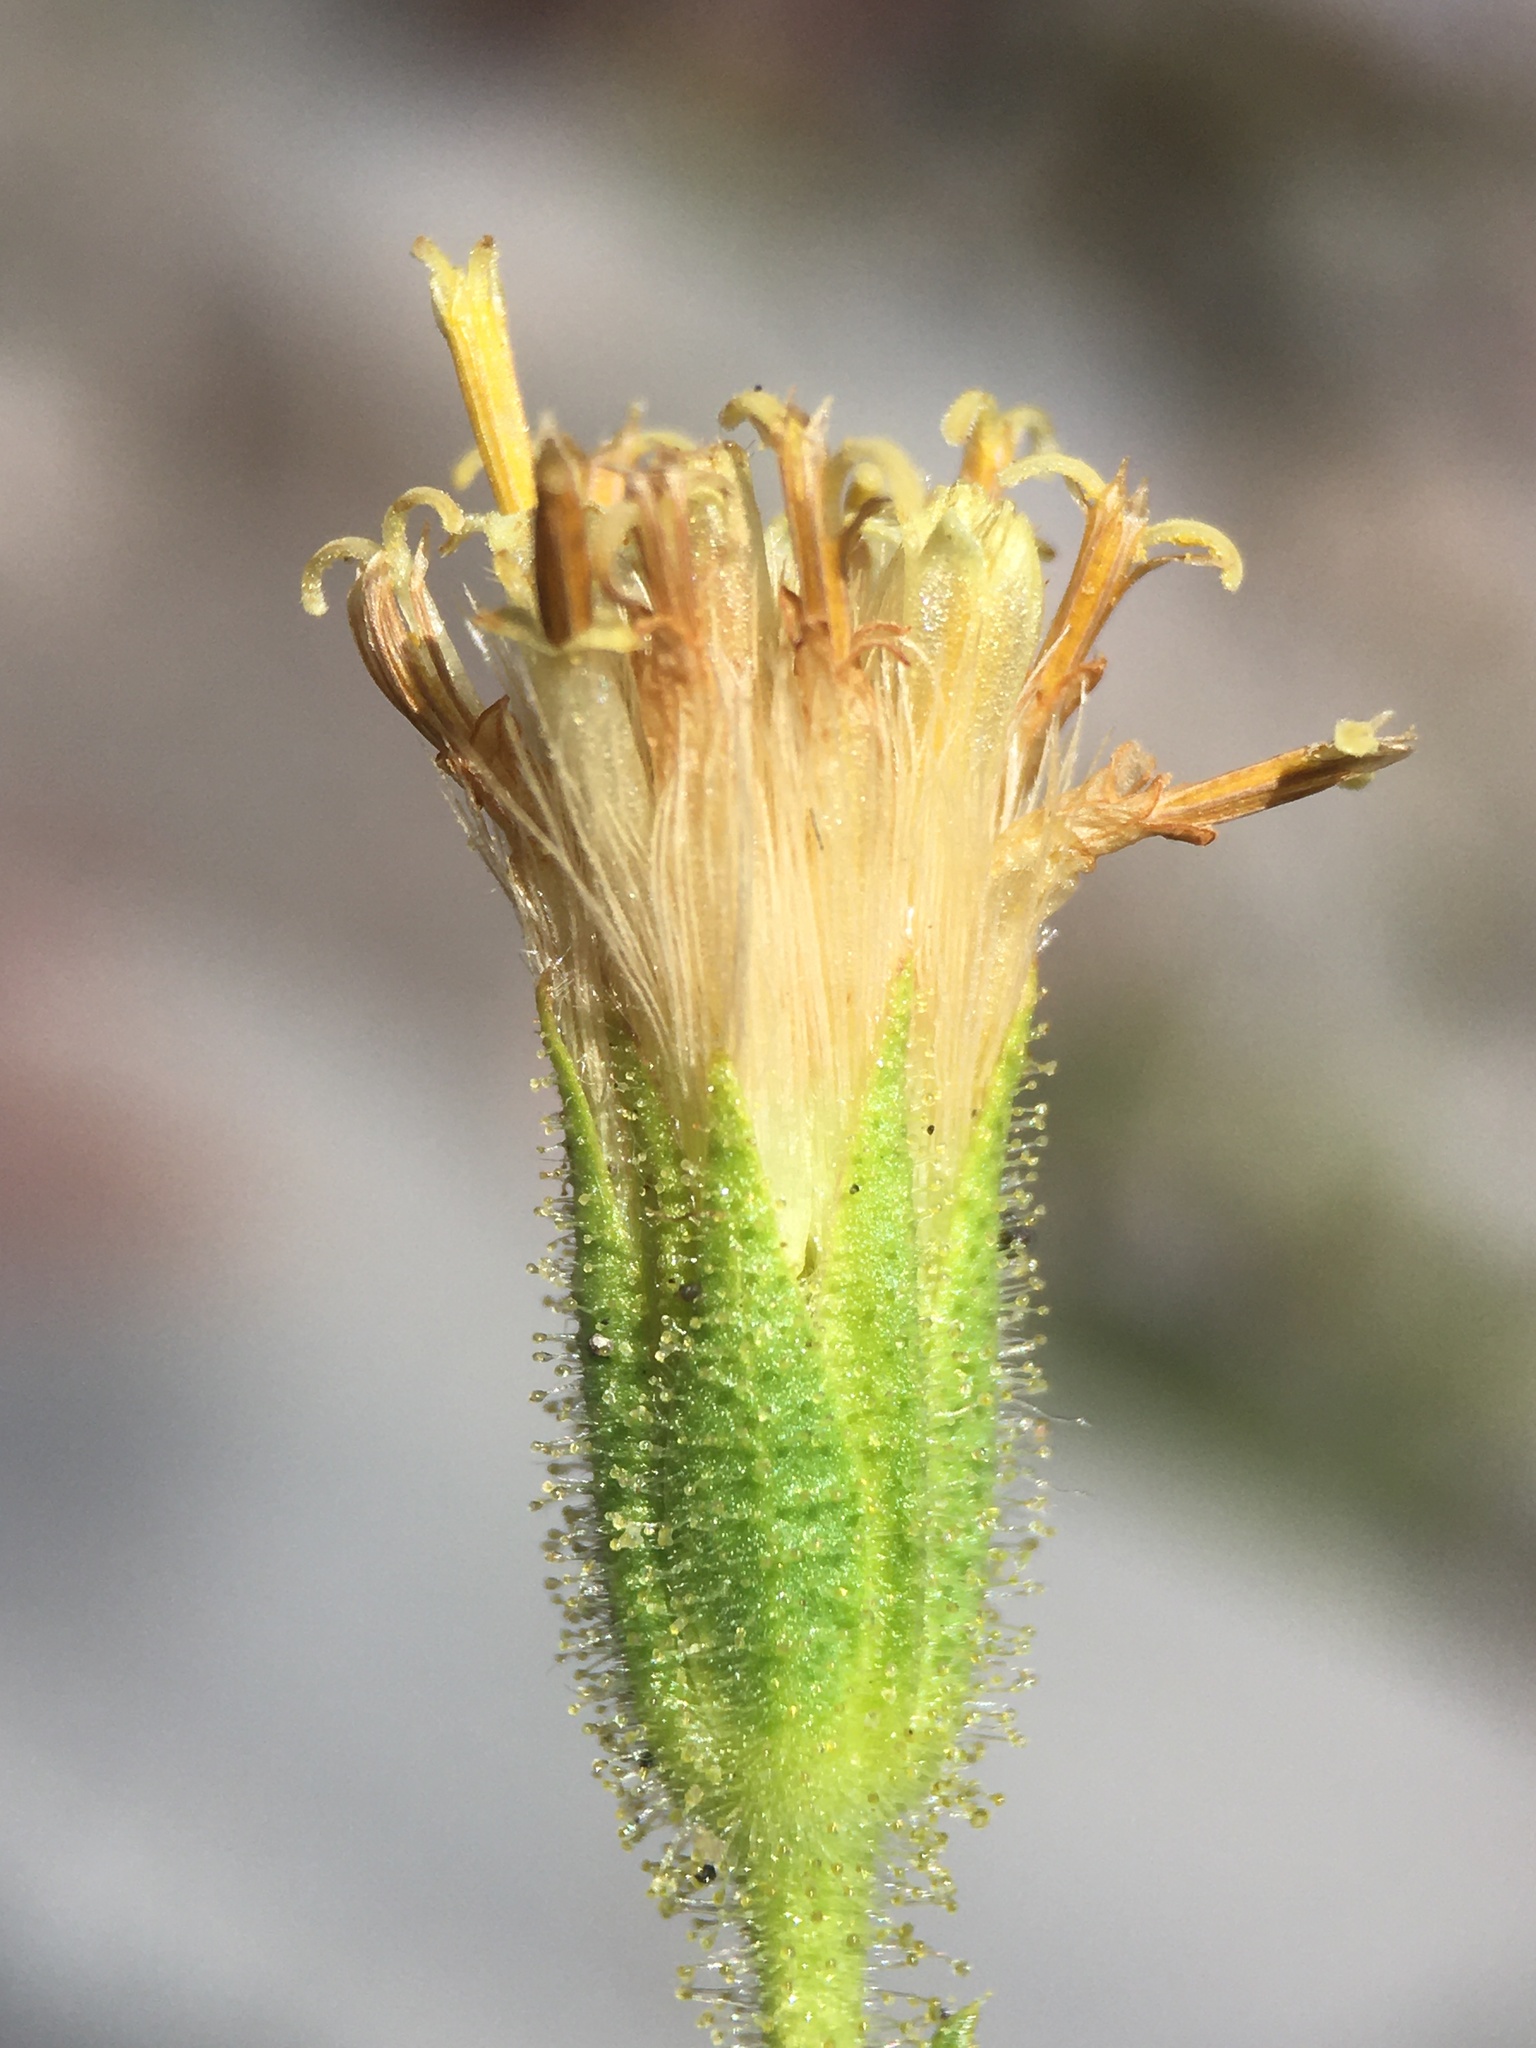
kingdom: Plantae
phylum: Tracheophyta
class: Magnoliopsida
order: Asterales
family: Asteraceae
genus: Arnica
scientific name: Arnica viscosa
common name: Mt. shasta arnica
